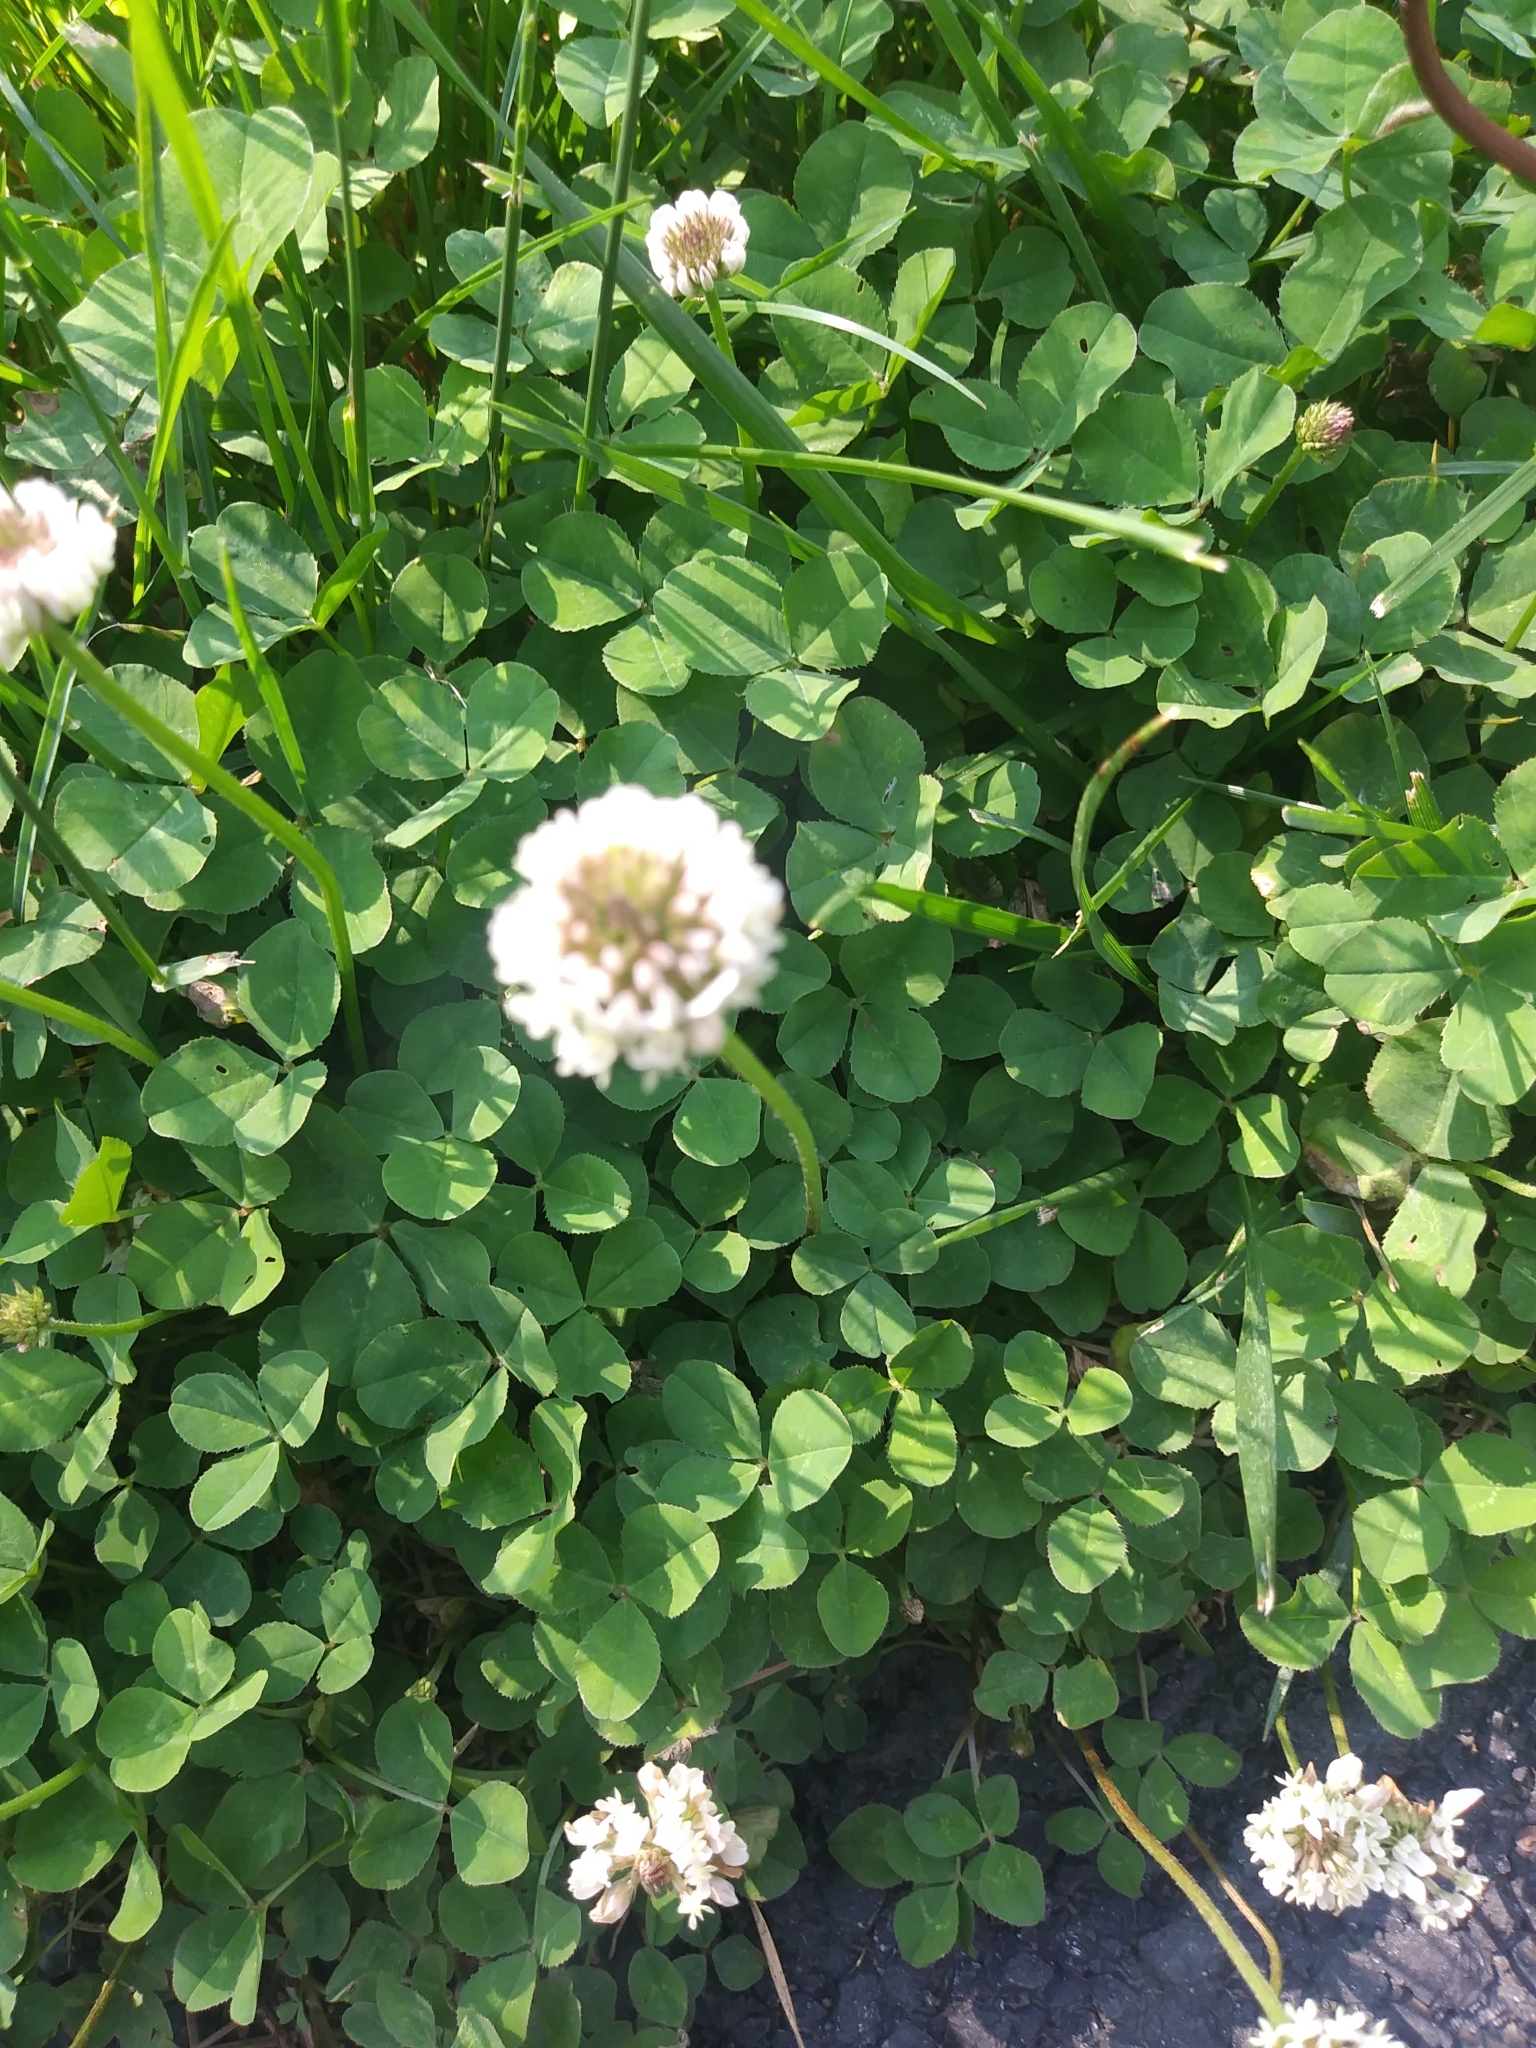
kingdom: Plantae
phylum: Tracheophyta
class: Magnoliopsida
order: Fabales
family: Fabaceae
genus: Trifolium
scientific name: Trifolium repens
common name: White clover
